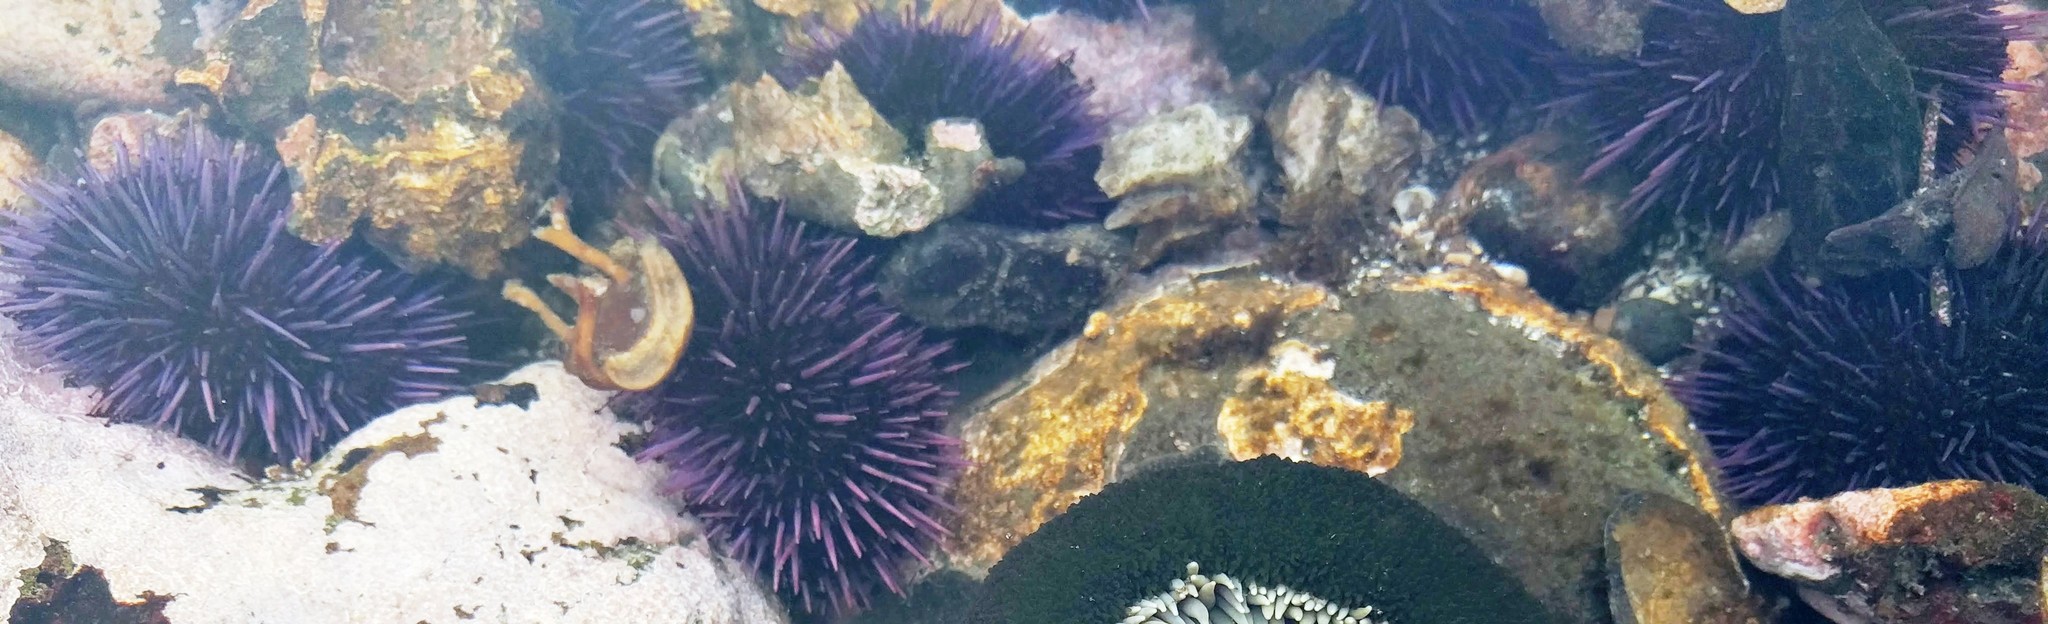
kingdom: Animalia
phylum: Echinodermata
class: Echinoidea
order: Camarodonta
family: Strongylocentrotidae
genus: Strongylocentrotus
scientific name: Strongylocentrotus purpuratus
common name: Purple sea urchin
